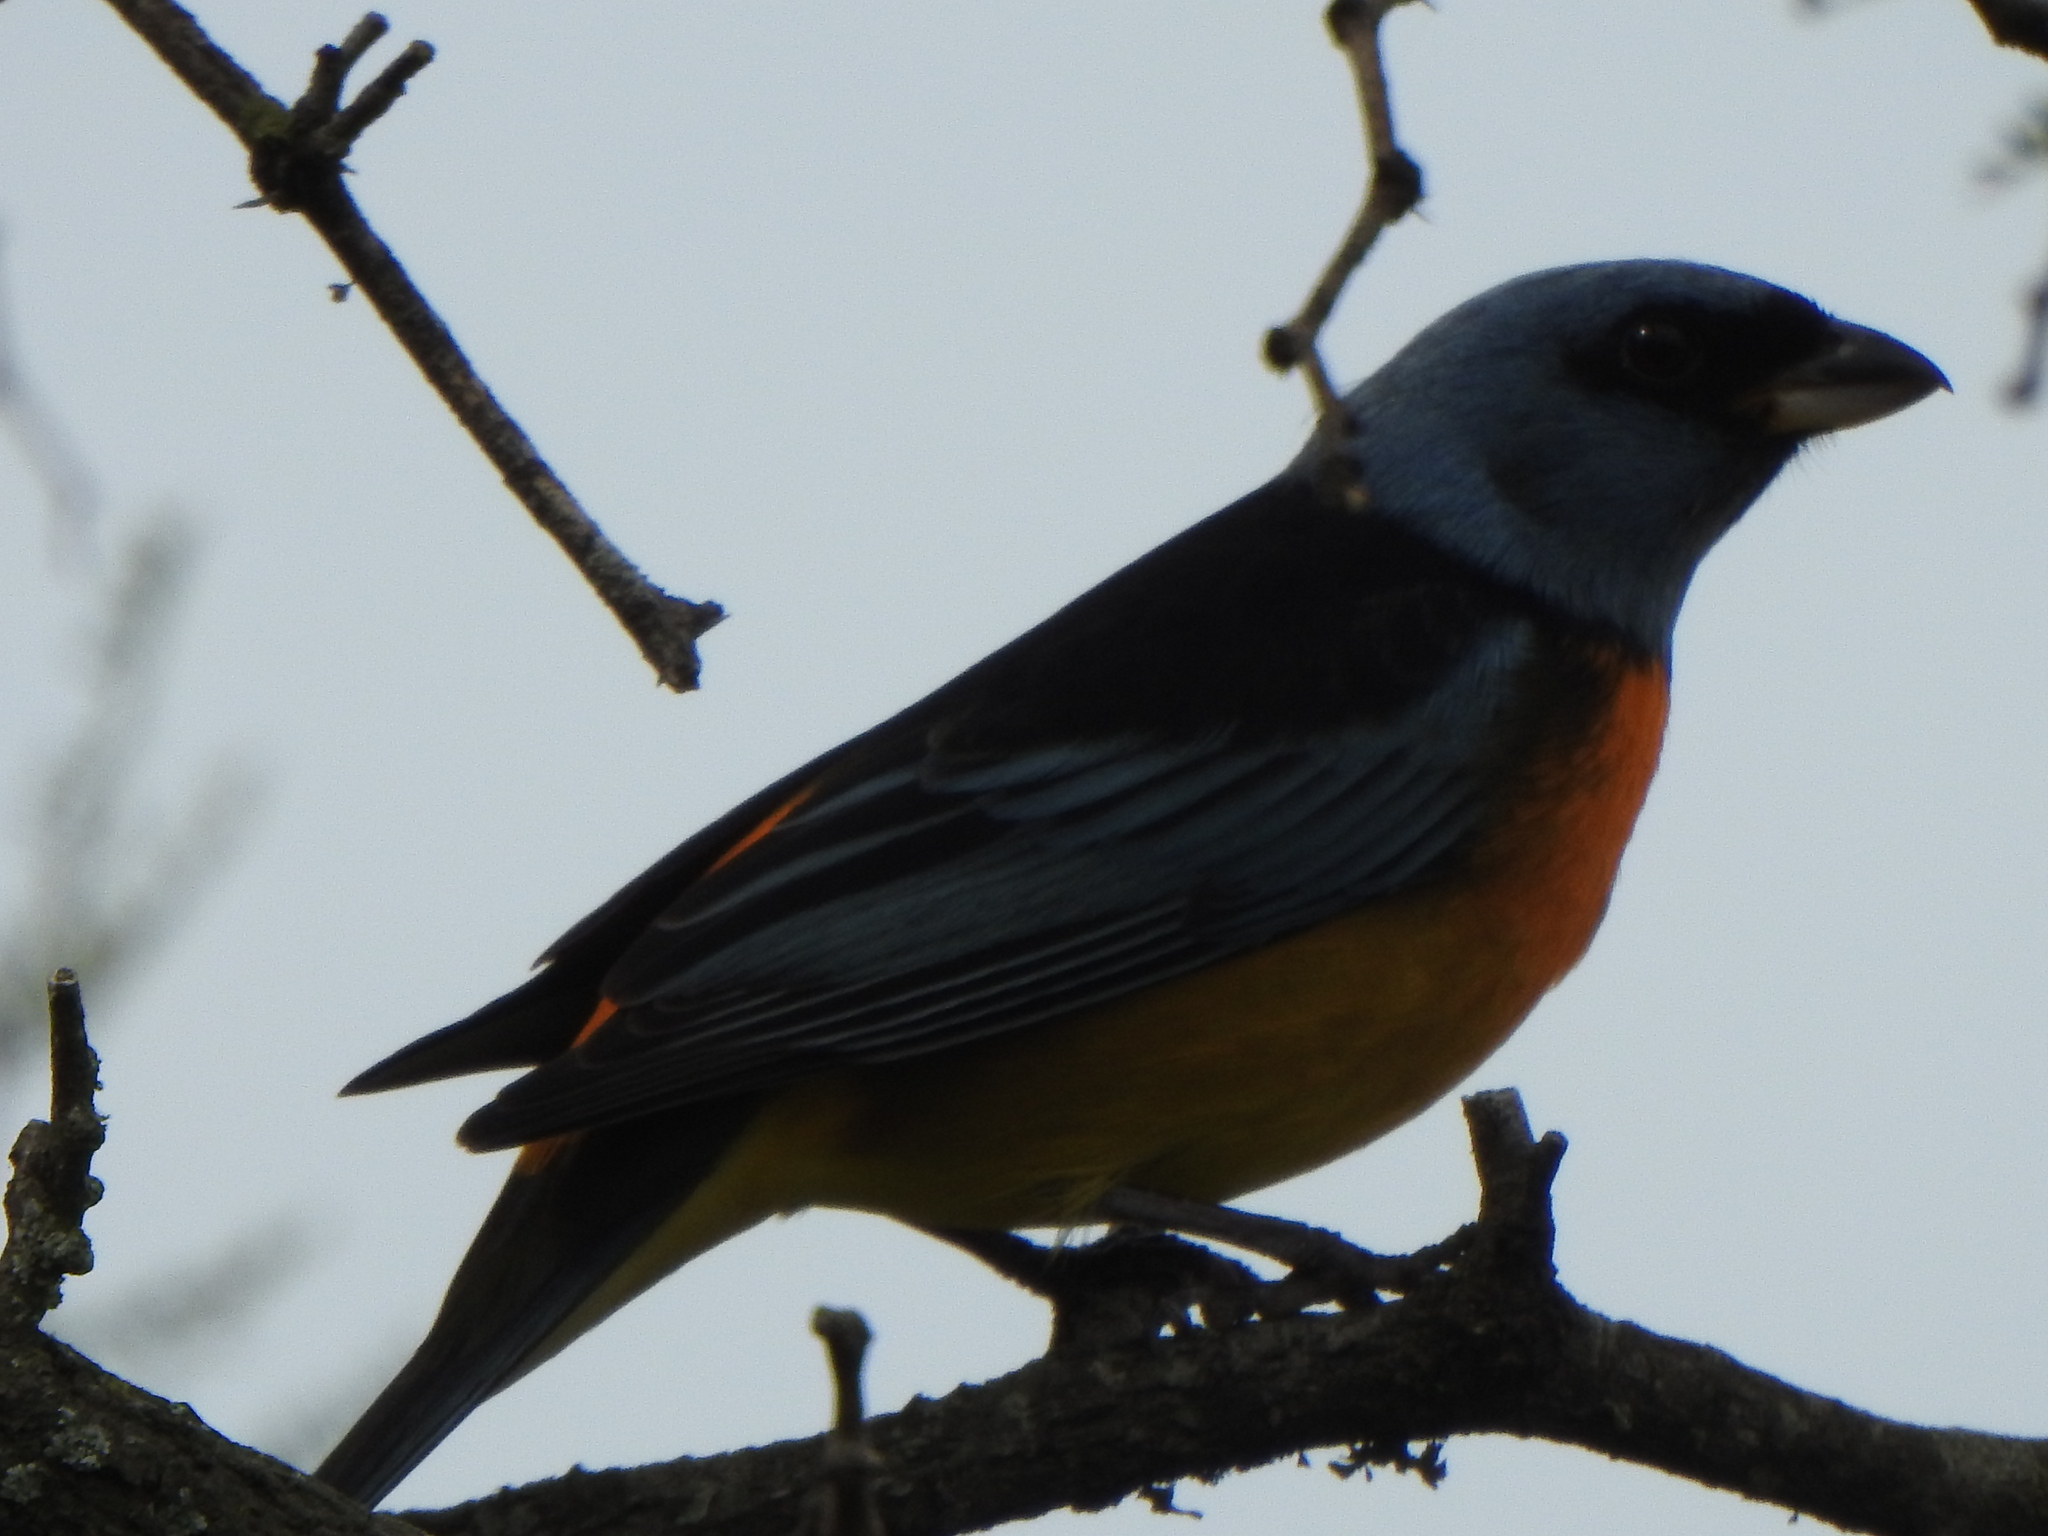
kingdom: Animalia
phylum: Chordata
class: Aves
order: Passeriformes
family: Thraupidae
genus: Rauenia
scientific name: Rauenia bonariensis
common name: Blue-and-yellow tanager
